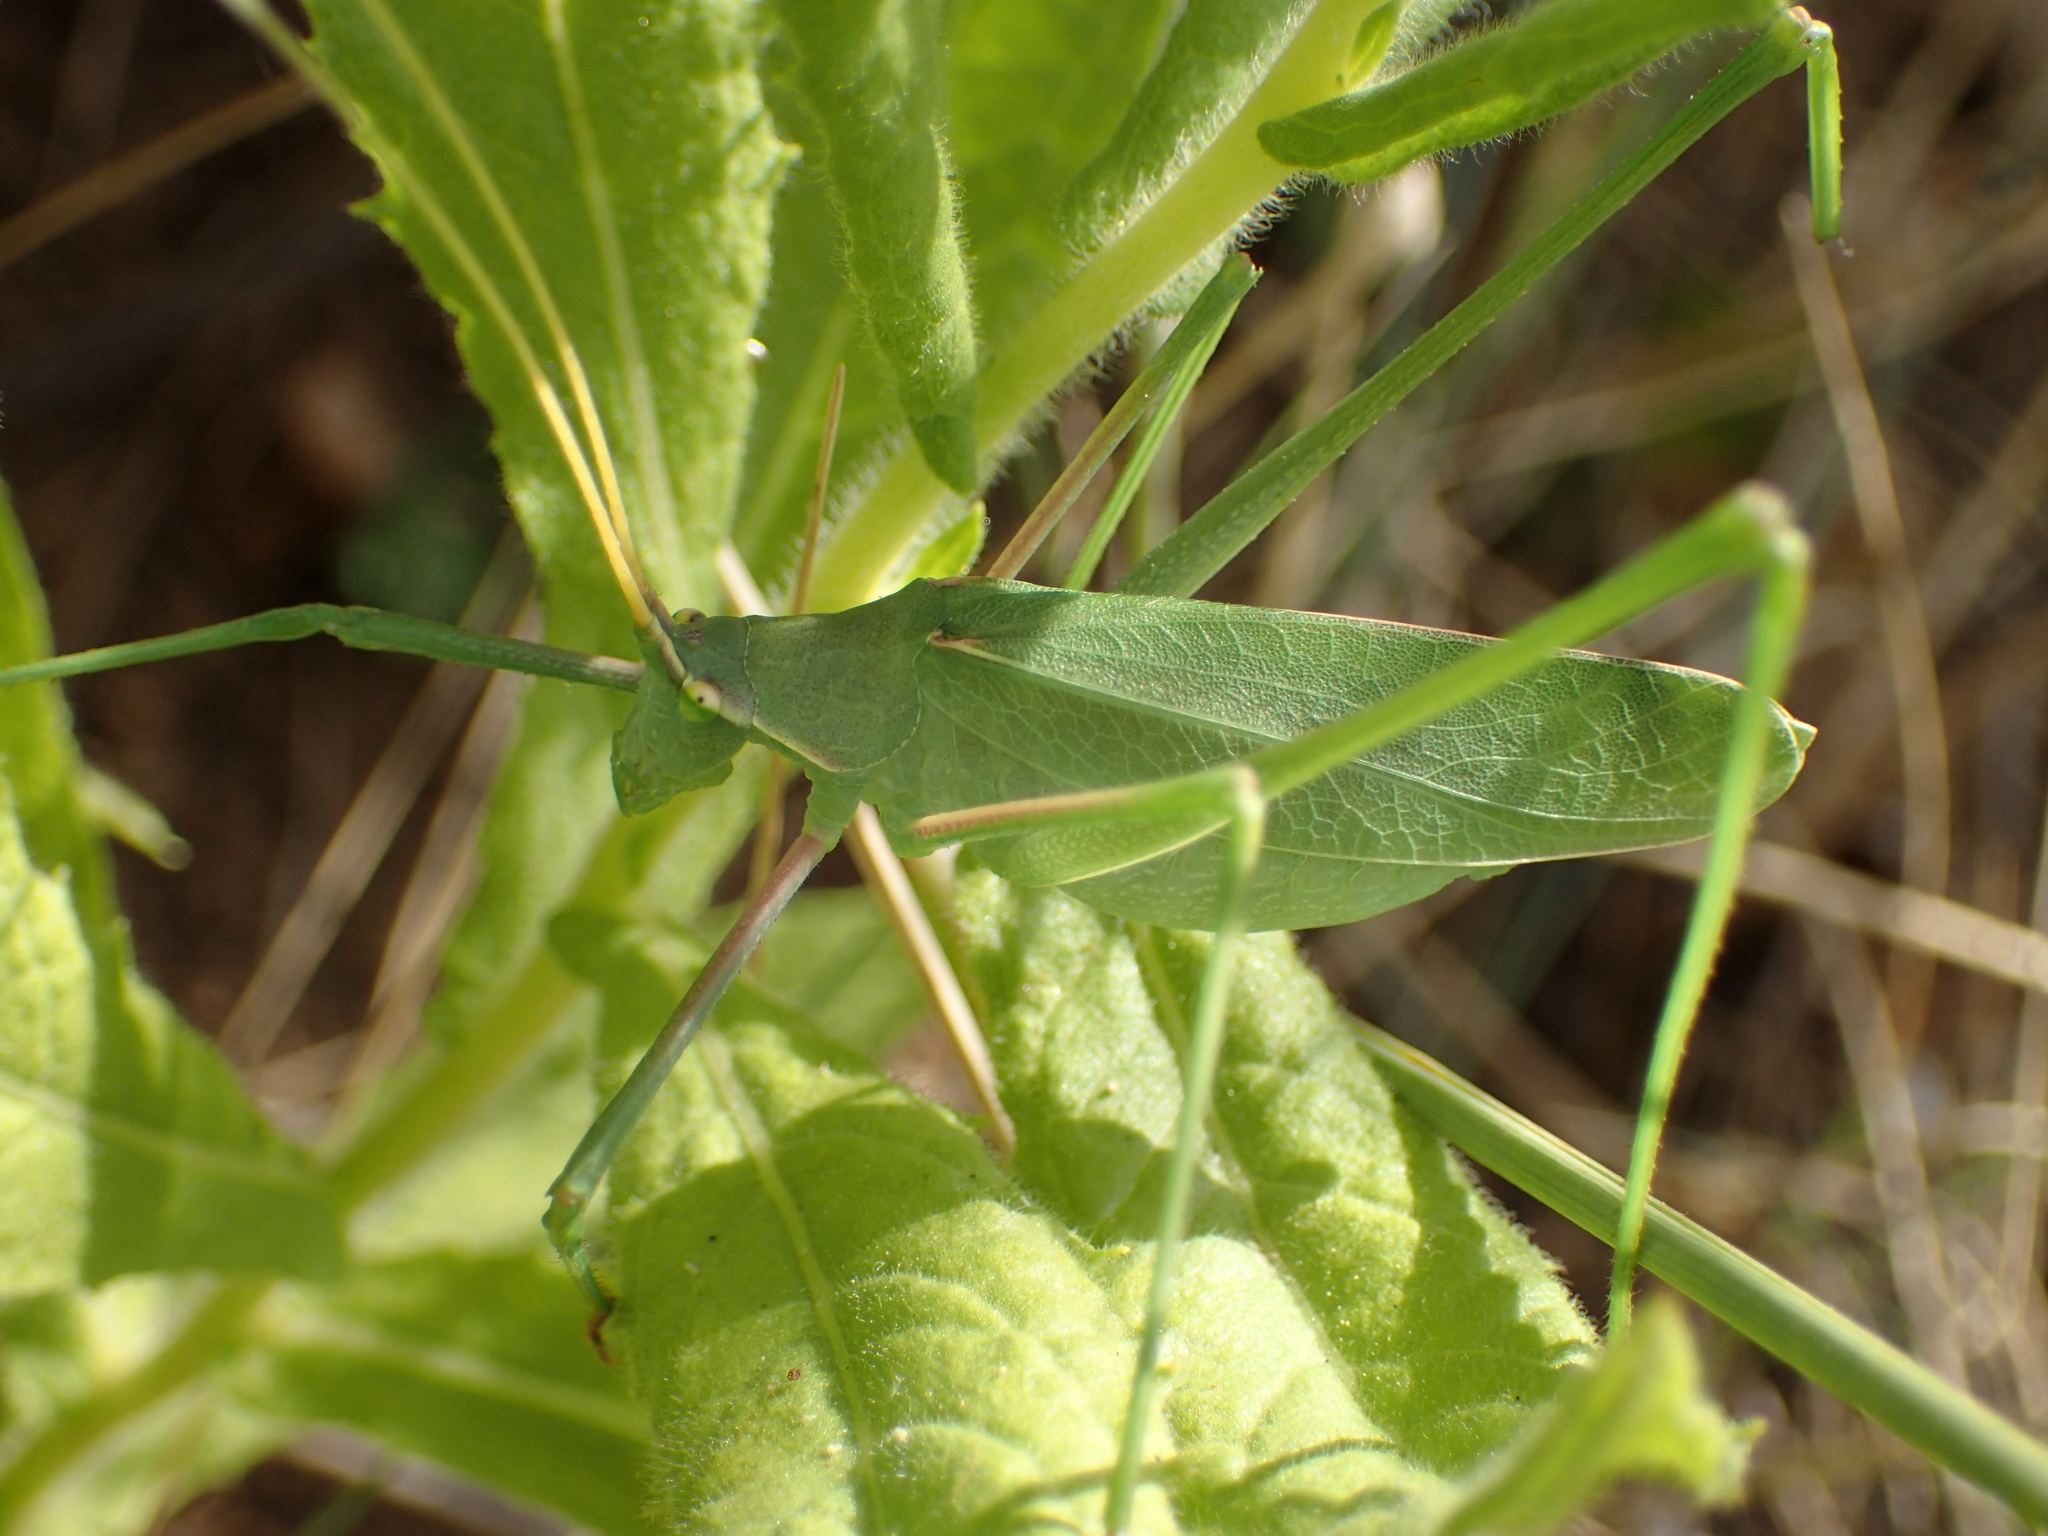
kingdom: Animalia
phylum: Arthropoda
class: Insecta
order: Orthoptera
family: Tettigoniidae
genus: Acrometopa
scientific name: Acrometopa macropoda
